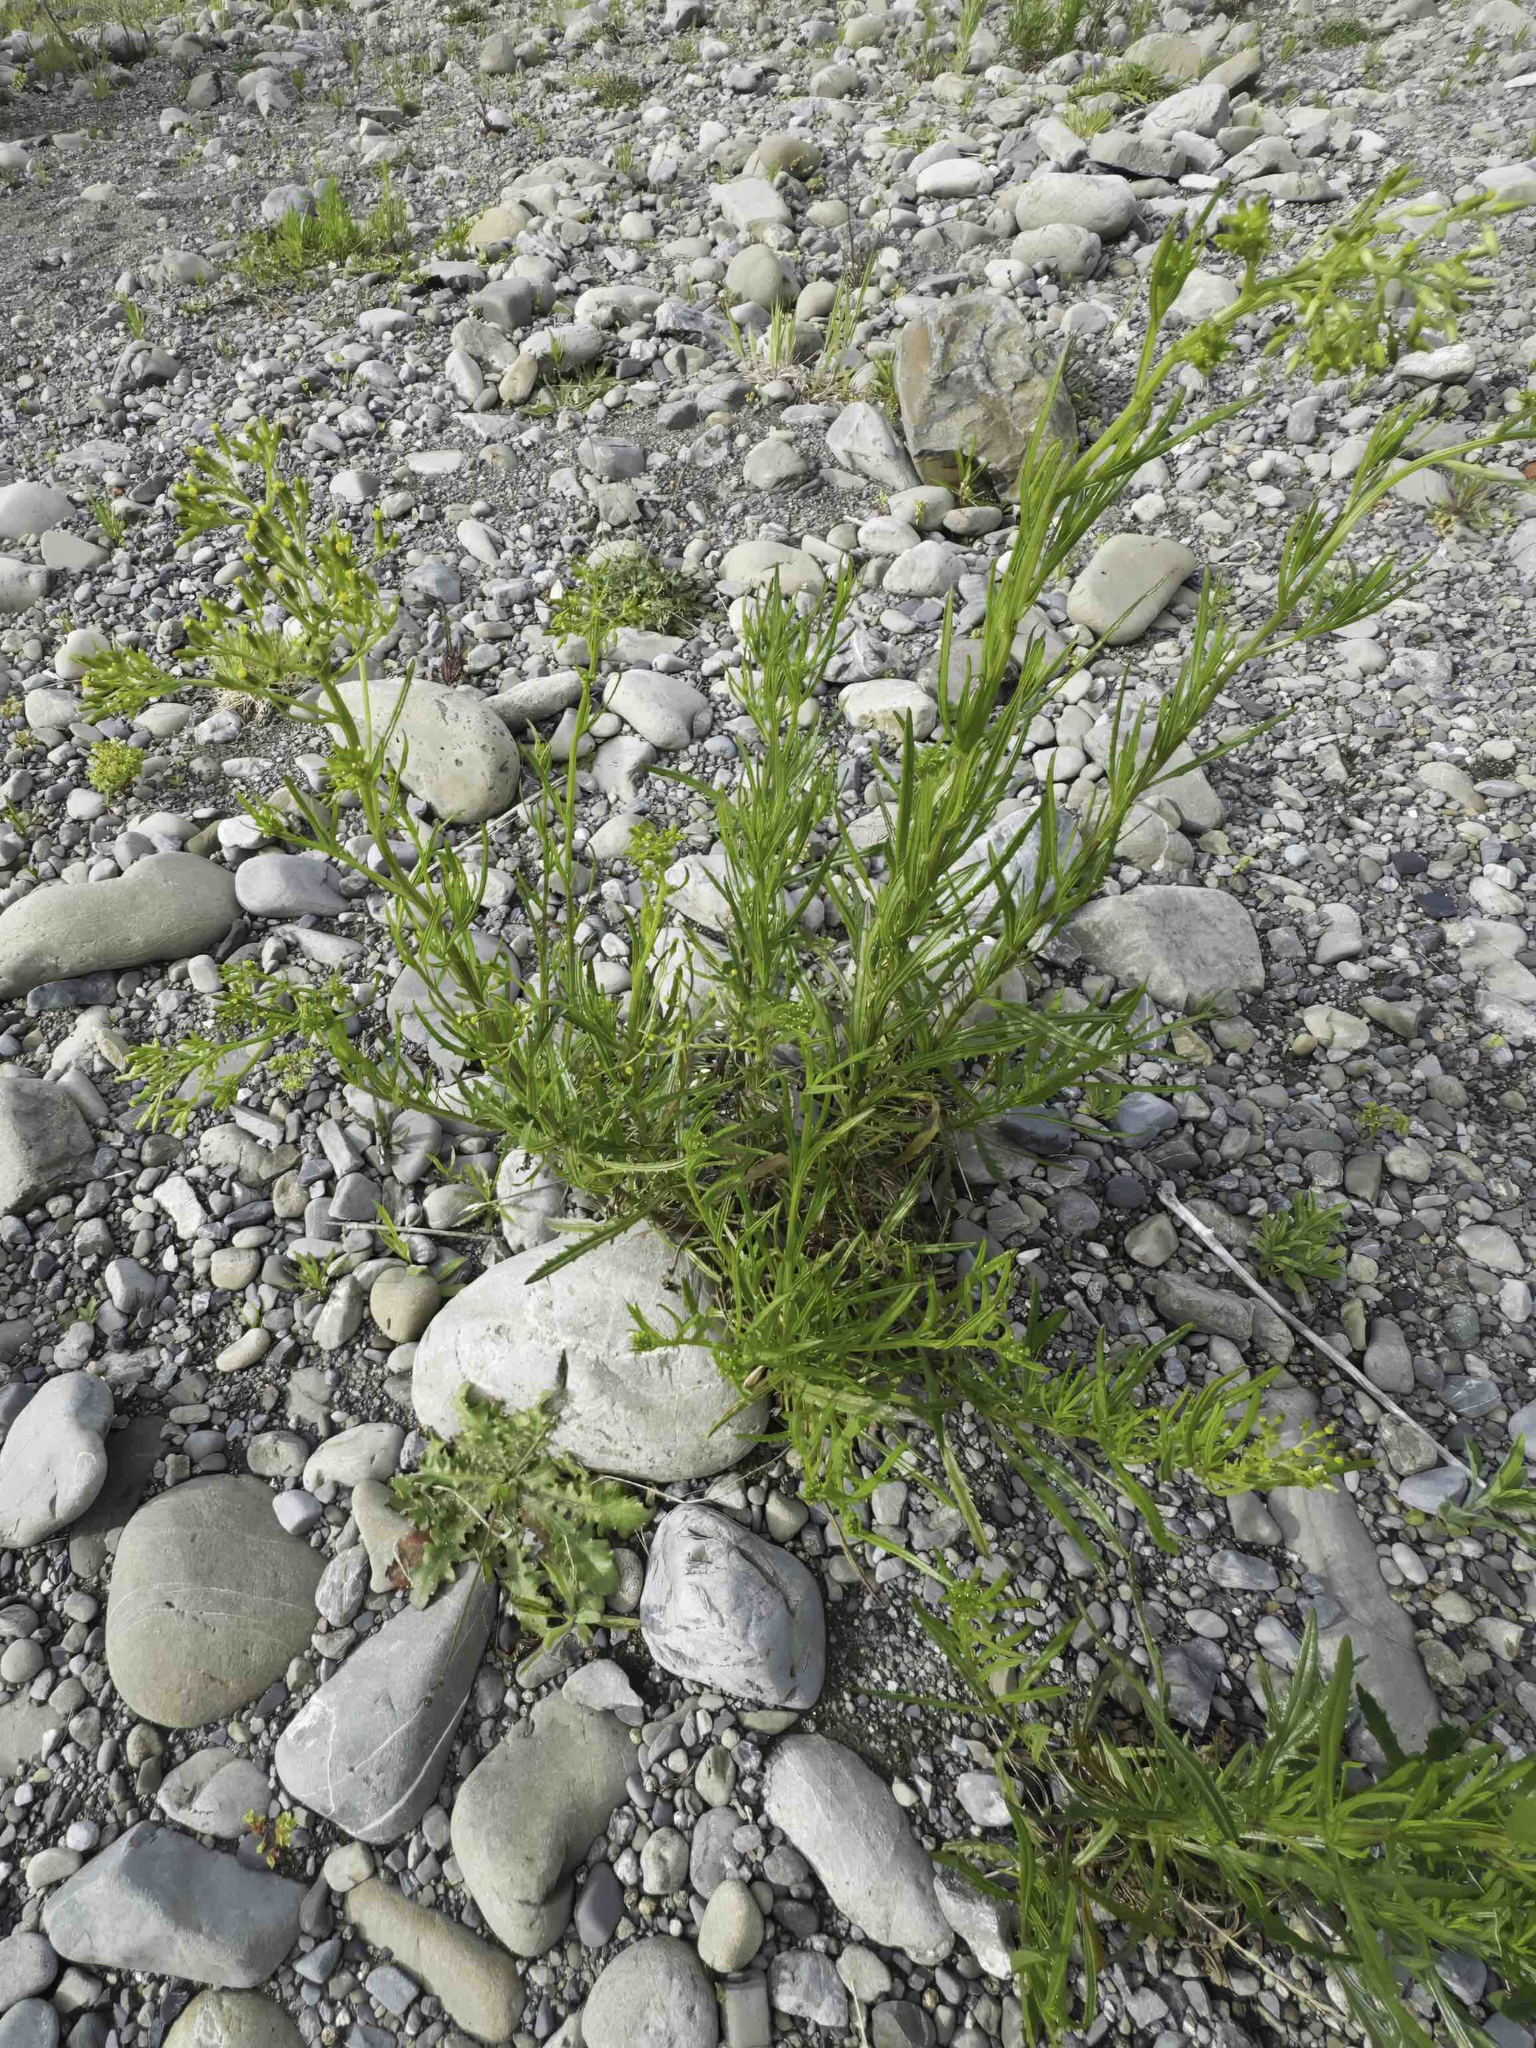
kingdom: Plantae
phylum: Tracheophyta
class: Magnoliopsida
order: Asterales
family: Asteraceae
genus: Senecio
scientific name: Senecio diaschides
